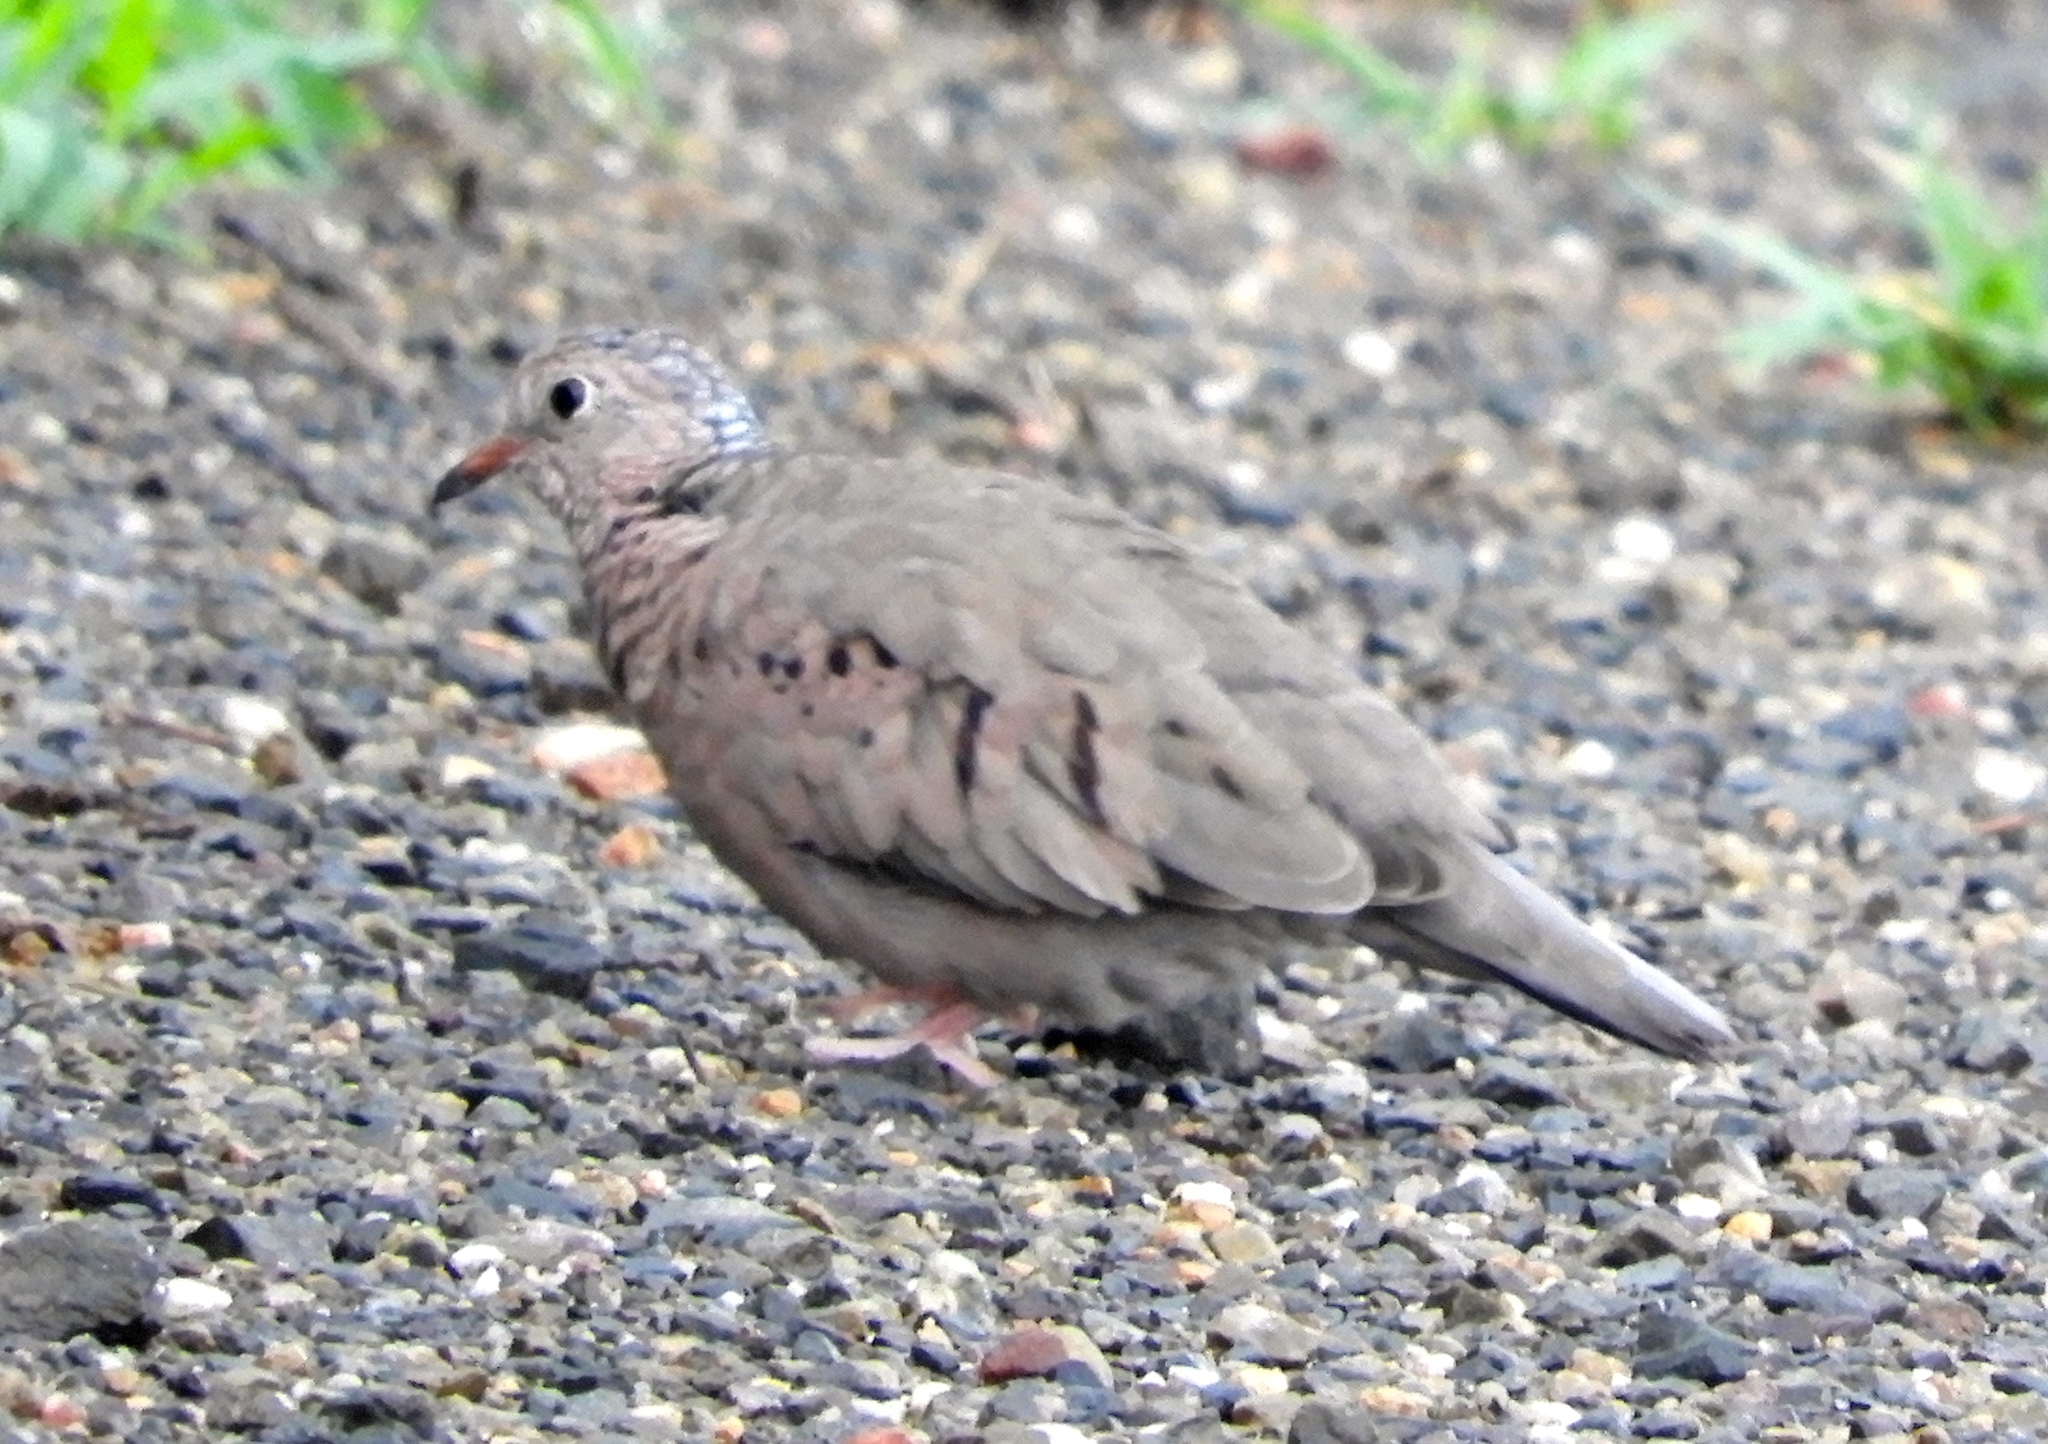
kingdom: Animalia
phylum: Chordata
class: Aves
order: Columbiformes
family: Columbidae
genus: Columbina
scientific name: Columbina passerina
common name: Common ground-dove
